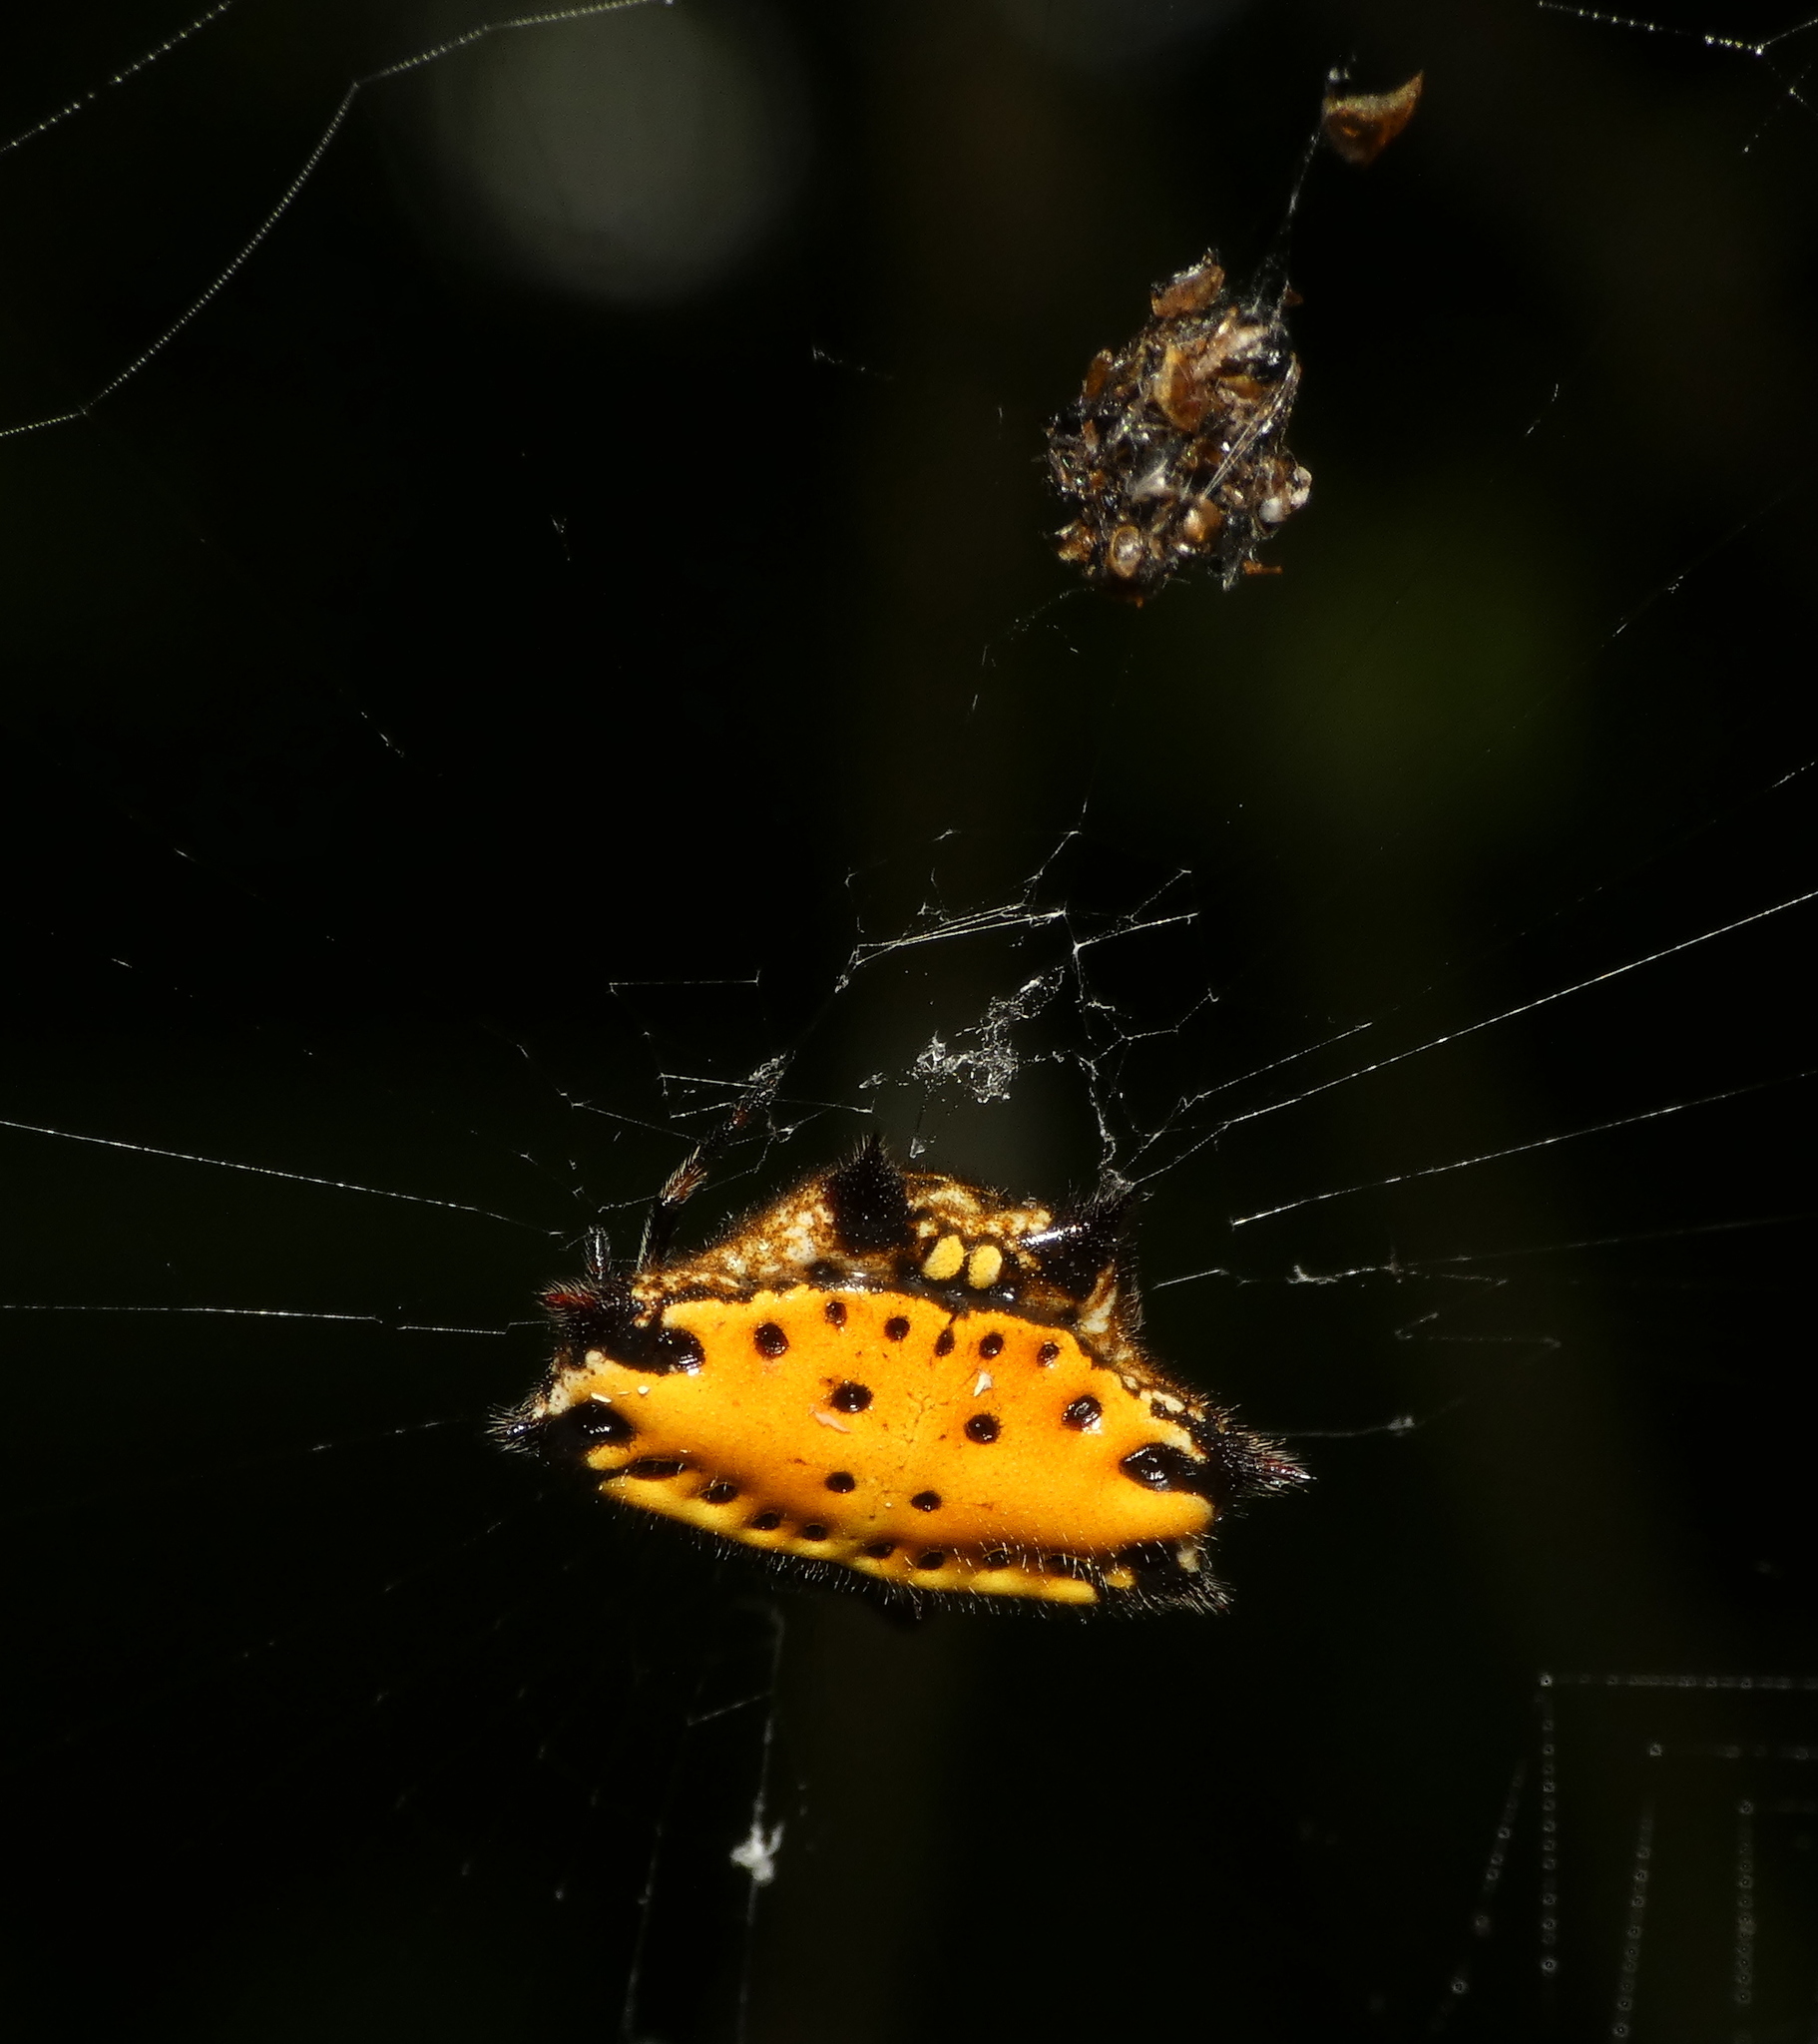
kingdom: Animalia
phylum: Arthropoda
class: Arachnida
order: Araneae
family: Araneidae
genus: Gasteracantha
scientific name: Gasteracantha cancriformis
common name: Orb weavers
